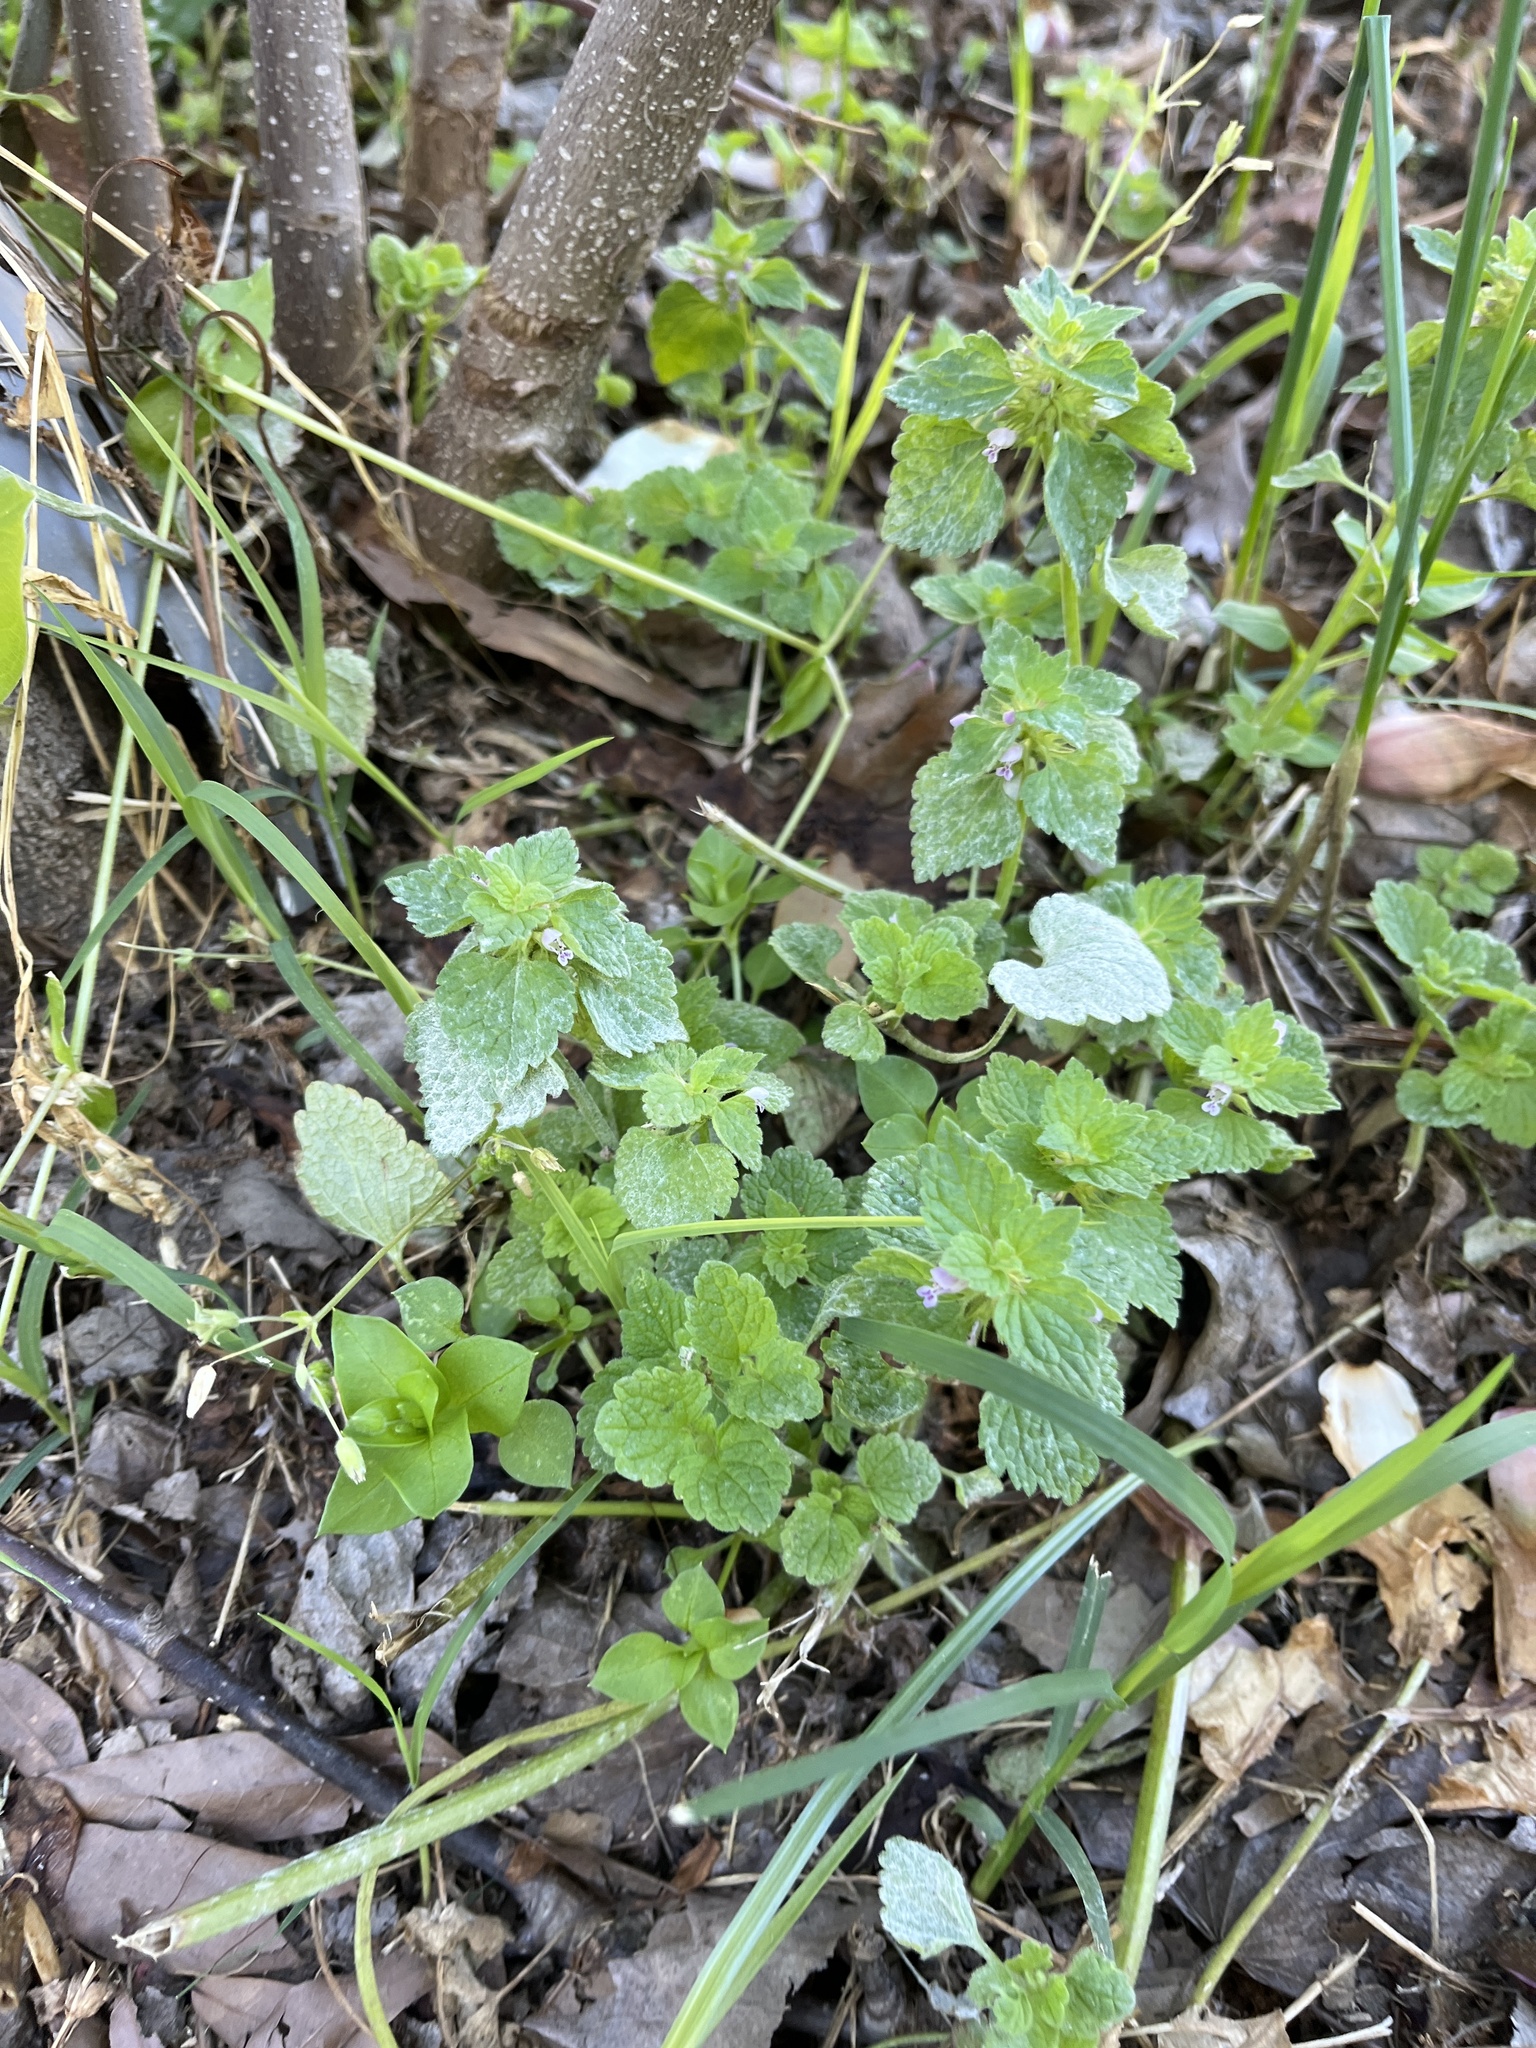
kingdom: Plantae
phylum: Tracheophyta
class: Magnoliopsida
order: Lamiales
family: Lamiaceae
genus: Lamium
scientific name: Lamium purpureum
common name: Red dead-nettle
